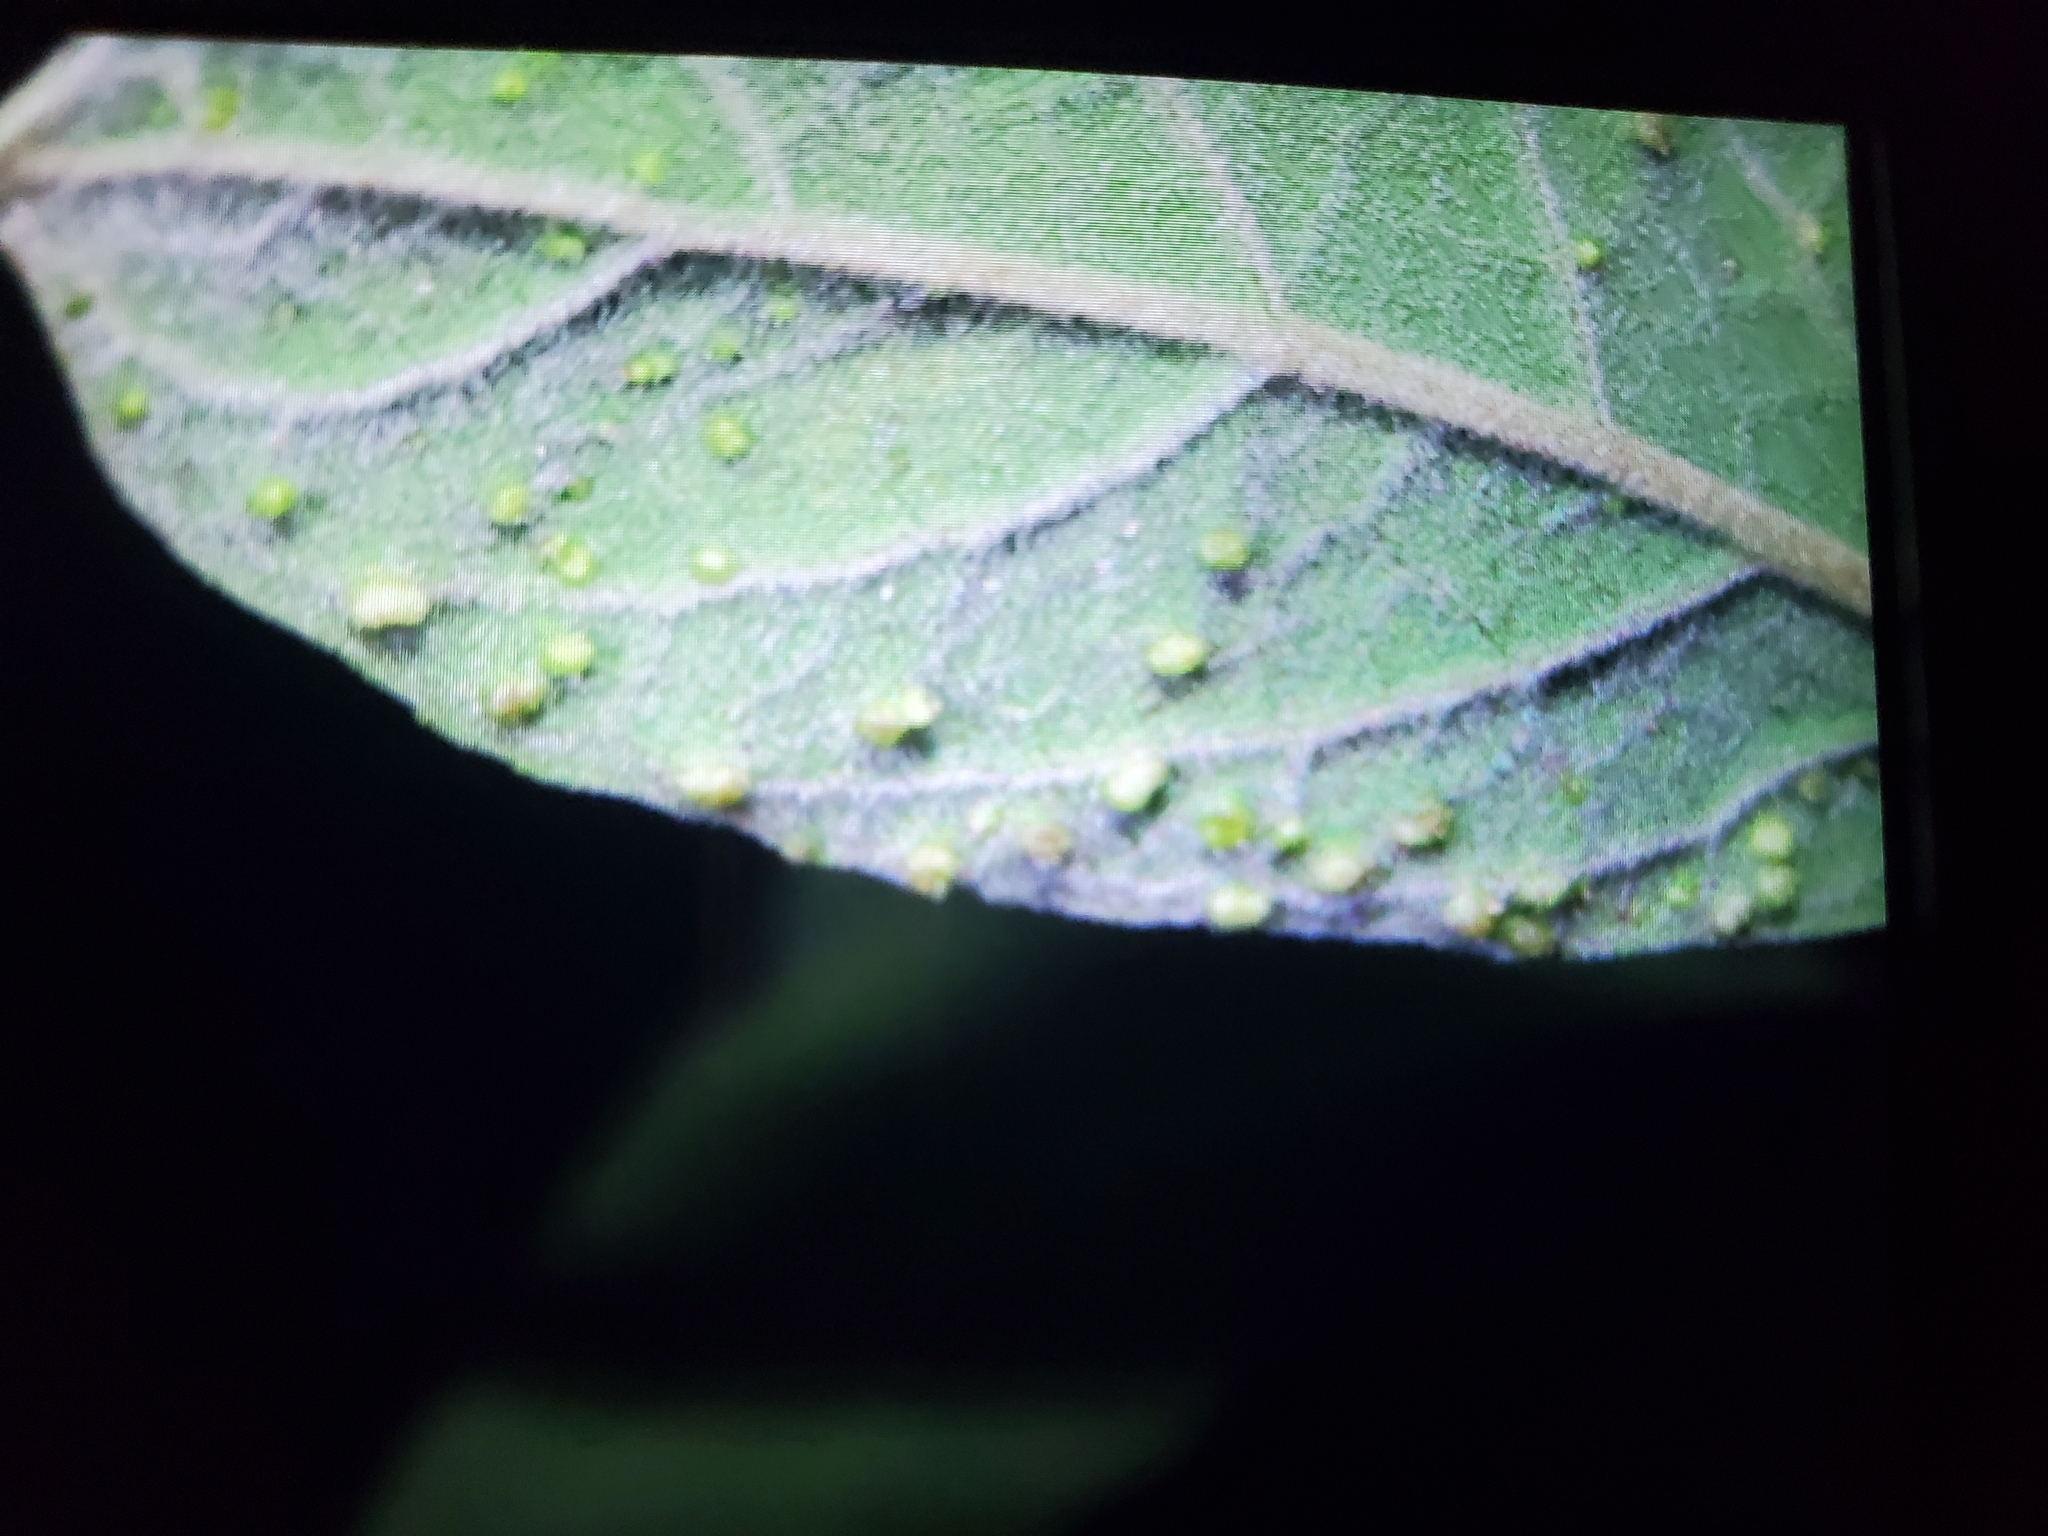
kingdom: Animalia
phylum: Arthropoda
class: Arachnida
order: Trombidiformes
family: Eriophyidae
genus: Vittacus
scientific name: Vittacus
